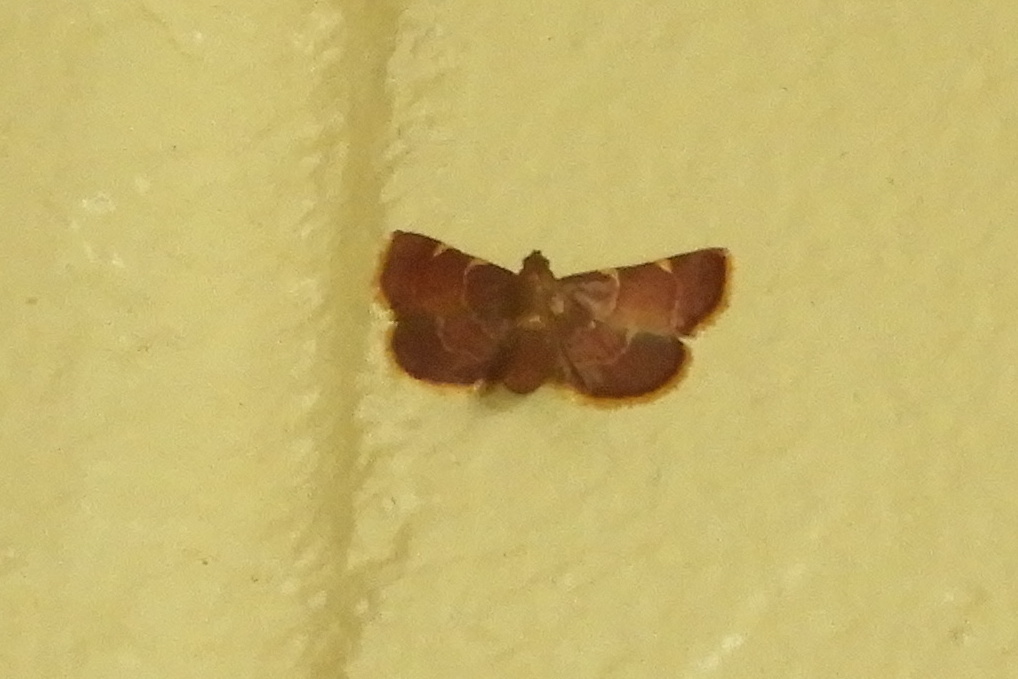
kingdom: Animalia
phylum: Arthropoda
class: Insecta
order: Lepidoptera
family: Pyralidae
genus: Hypsopygia
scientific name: Hypsopygia olinalis
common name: Yellow-fringed dolichomia moth
